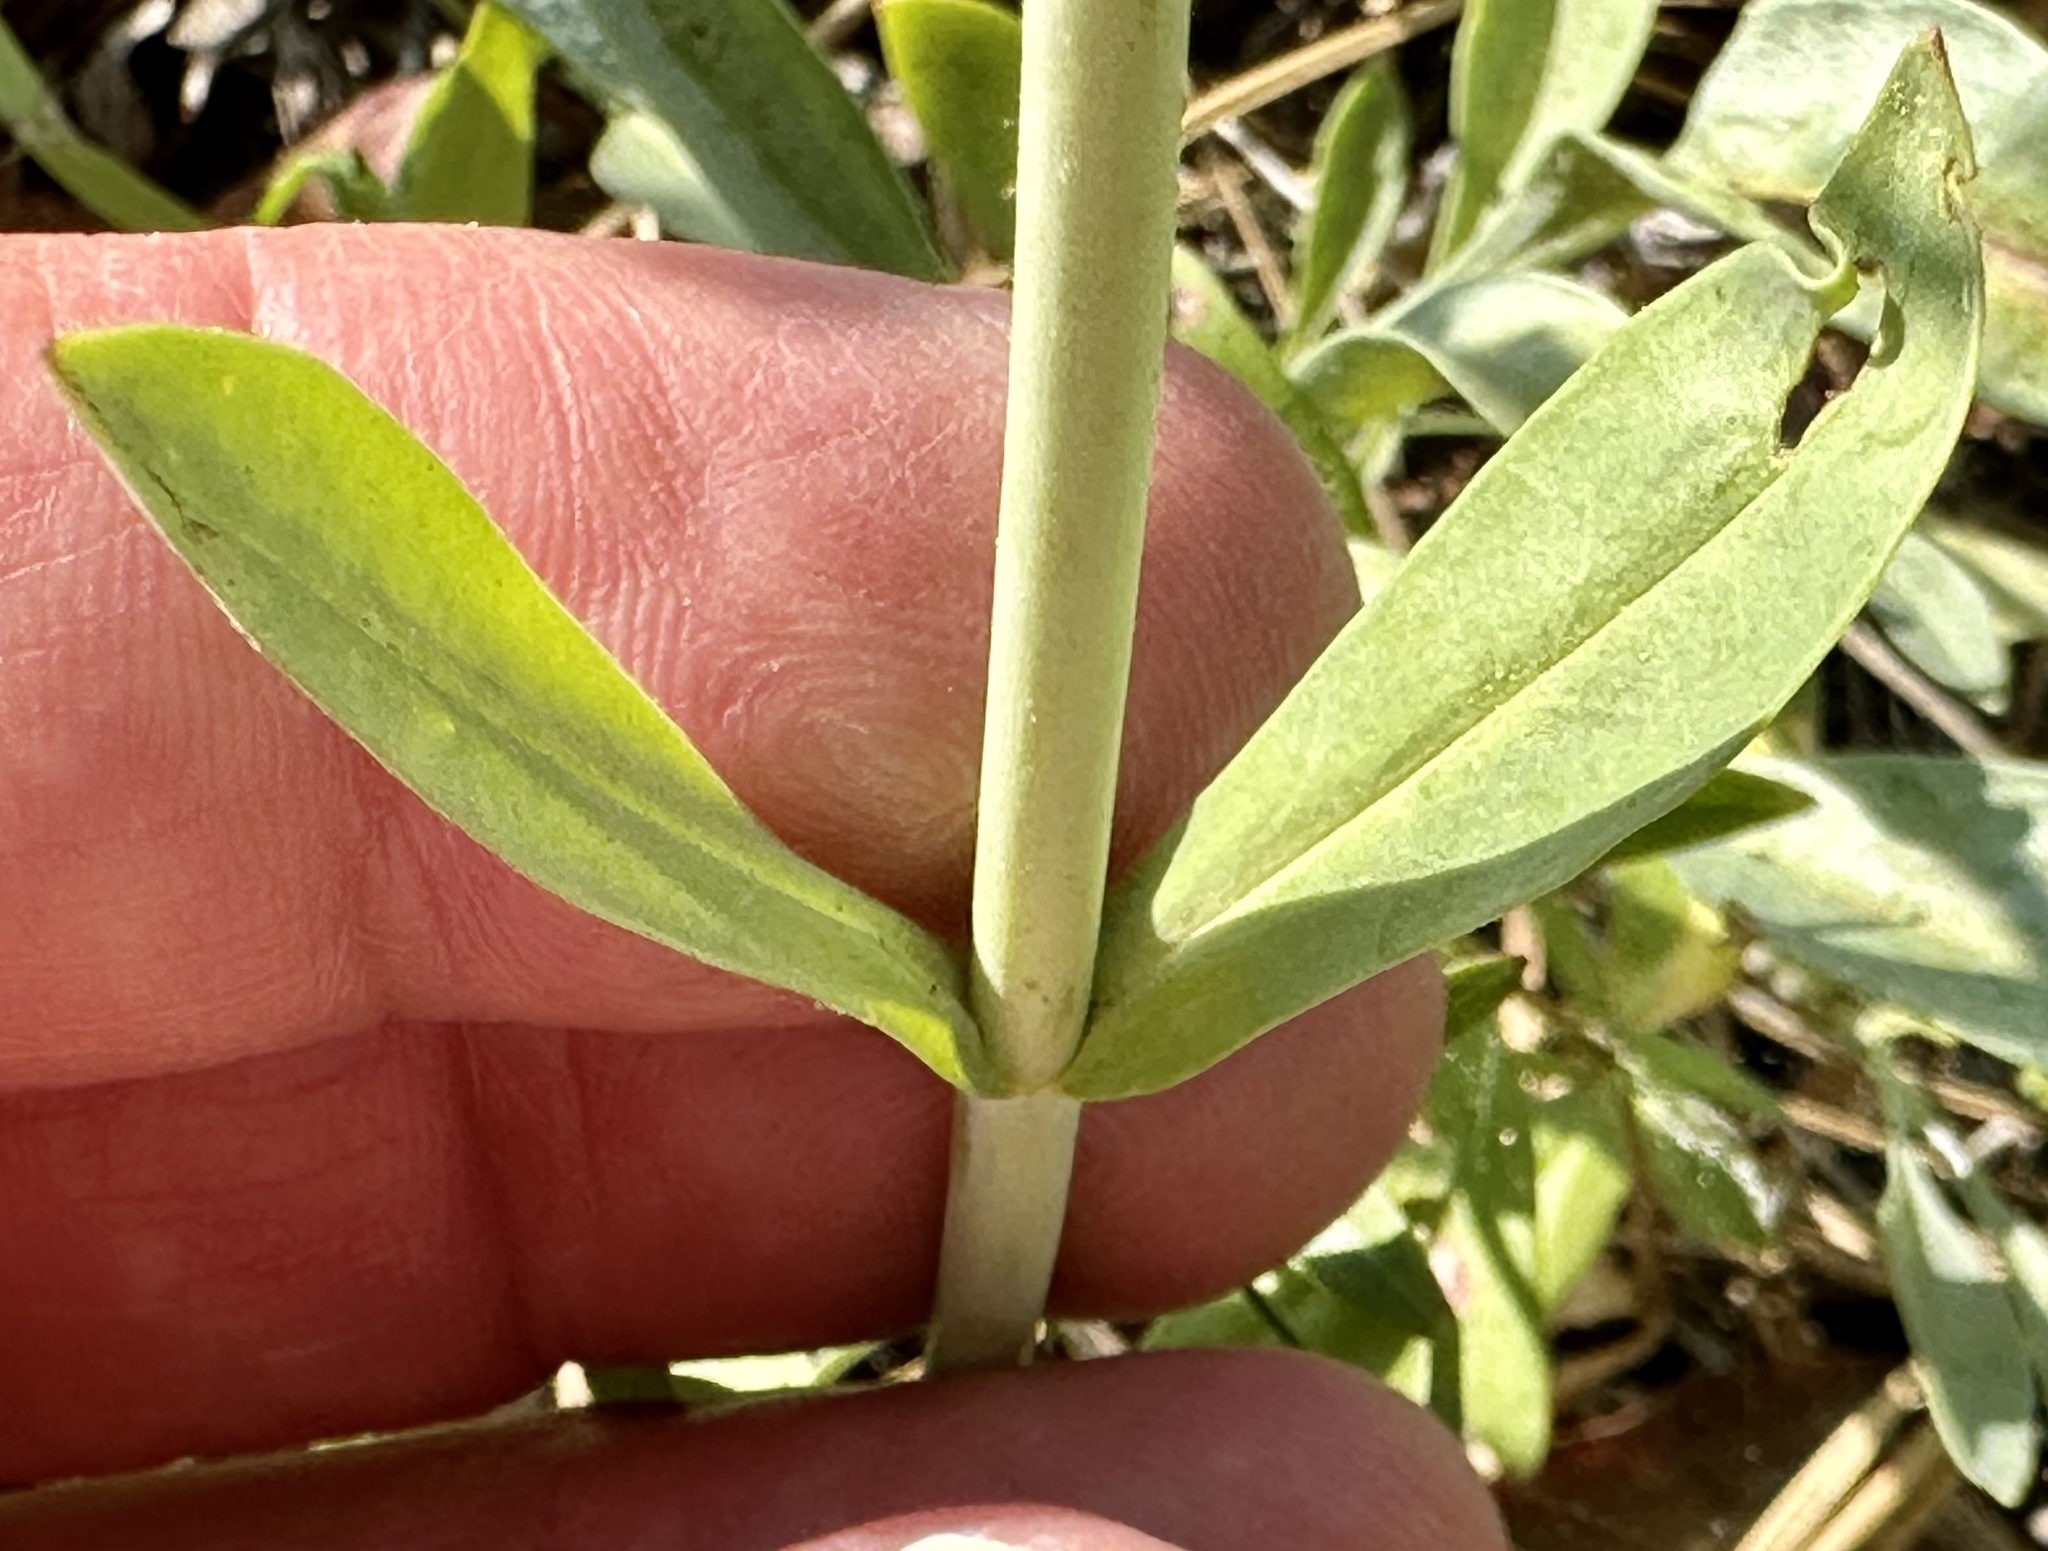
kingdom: Plantae
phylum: Tracheophyta
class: Magnoliopsida
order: Lamiales
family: Plantaginaceae
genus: Penstemon
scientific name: Penstemon euglaucus
